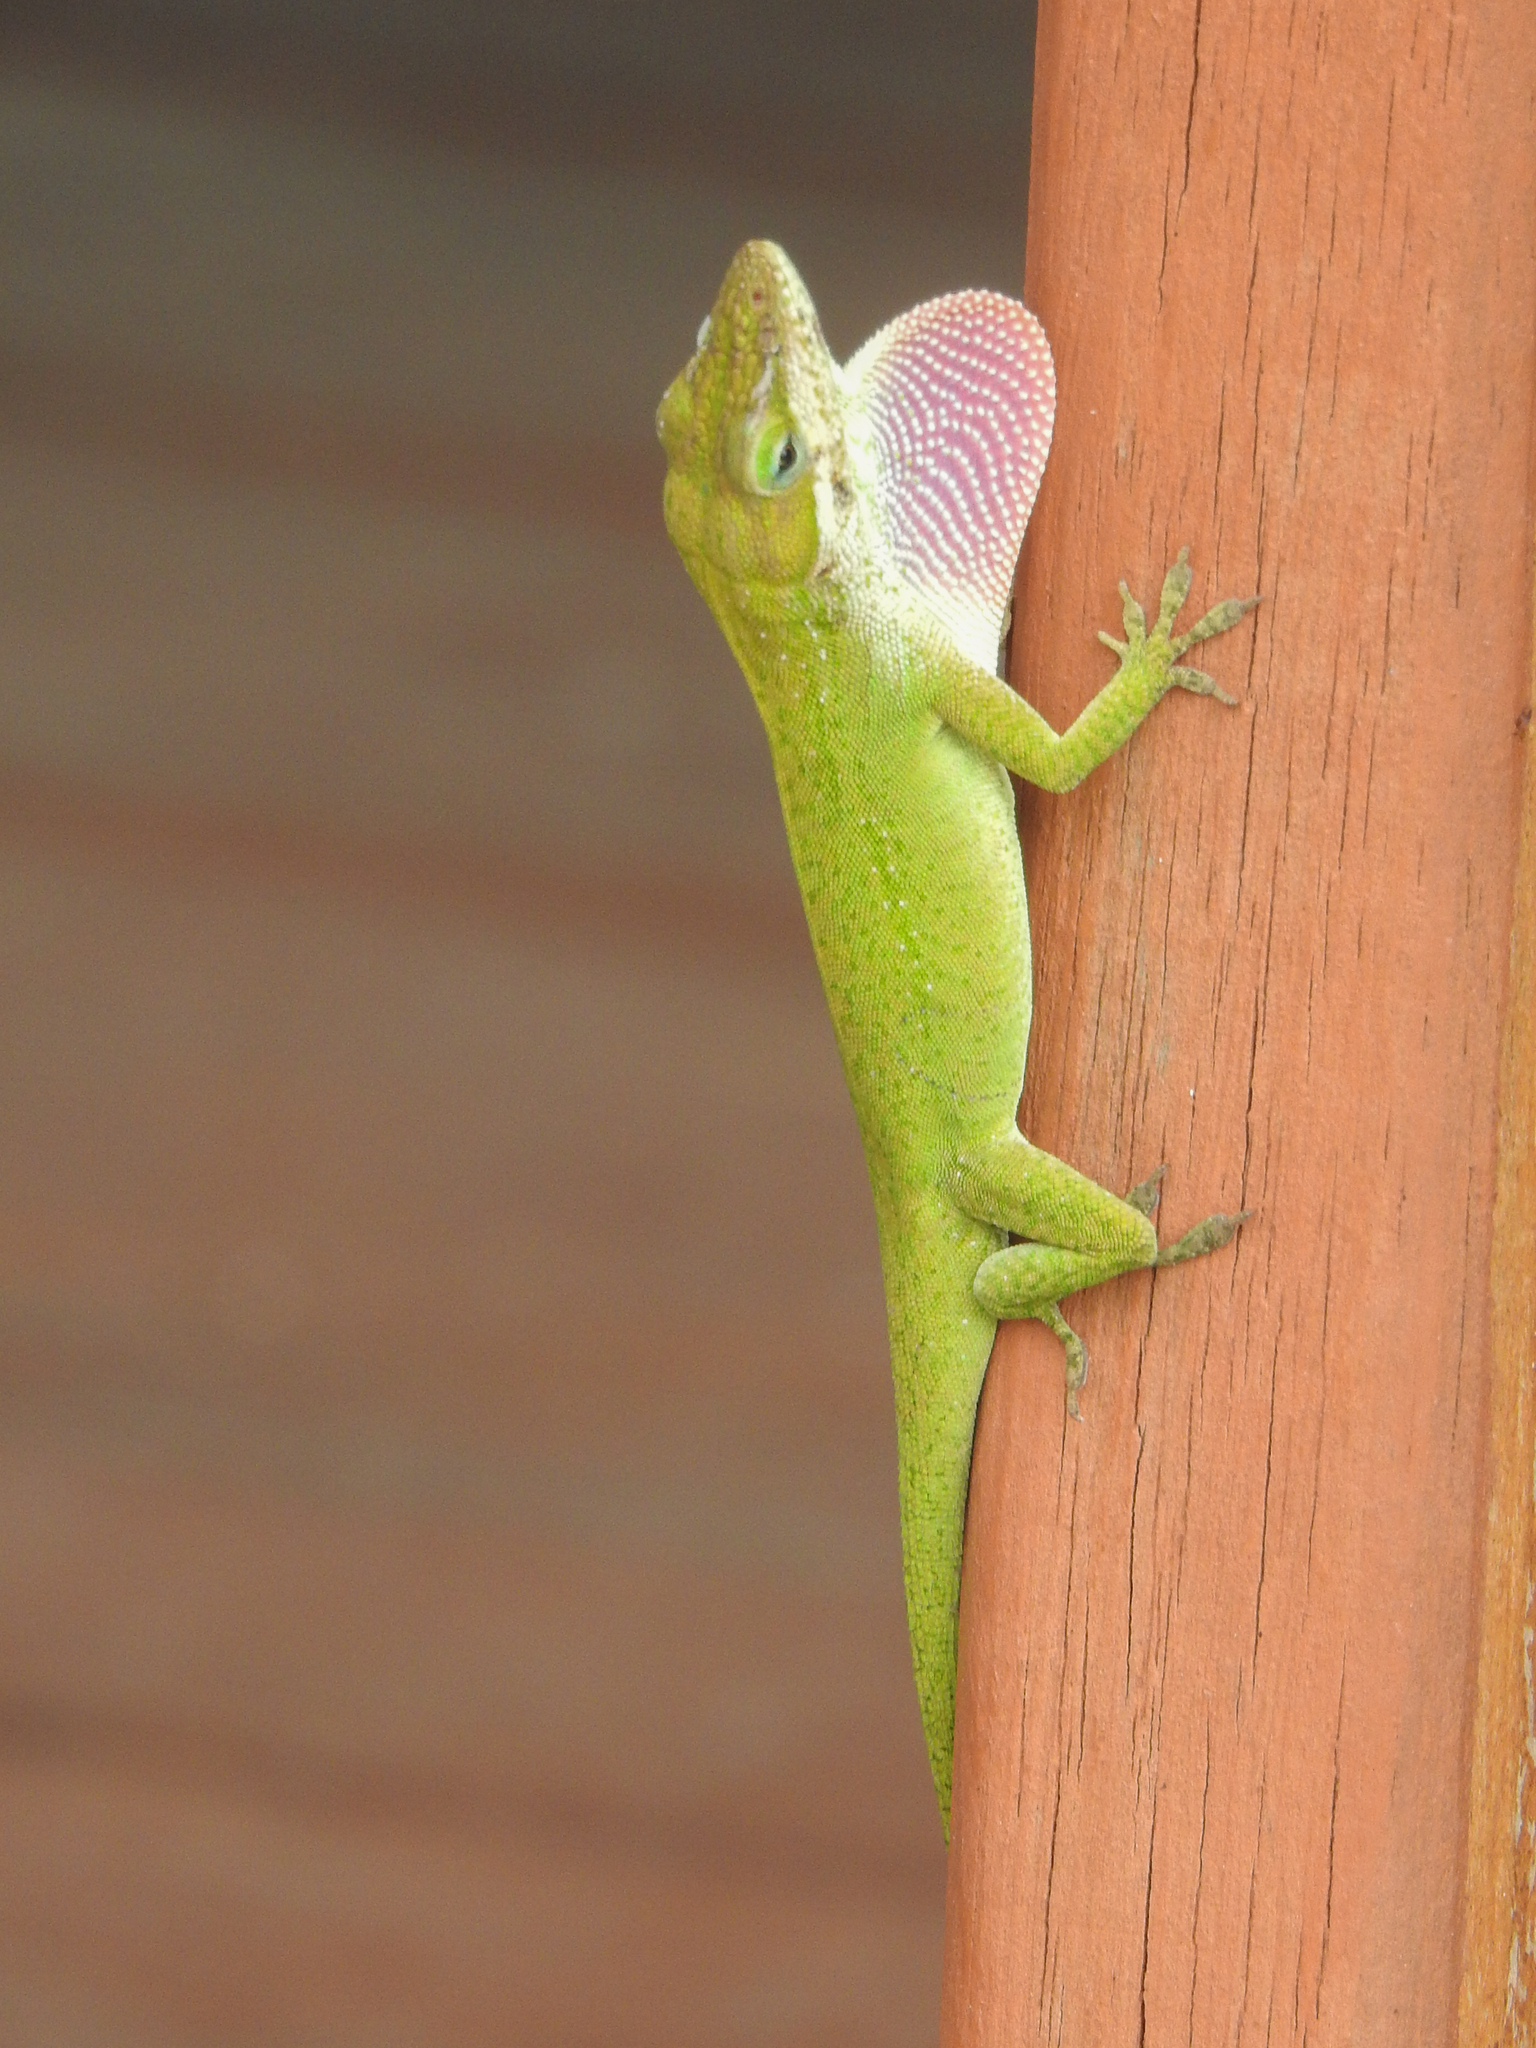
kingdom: Animalia
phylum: Chordata
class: Squamata
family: Dactyloidae
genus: Anolis
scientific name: Anolis carolinensis
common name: Green anole
